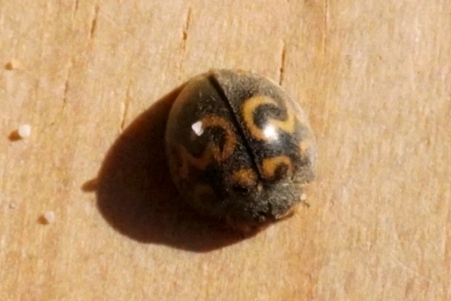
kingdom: Animalia
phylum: Arthropoda
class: Insecta
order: Lepidoptera
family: Geometridae
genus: Afrocleta
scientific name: Afrocleta
